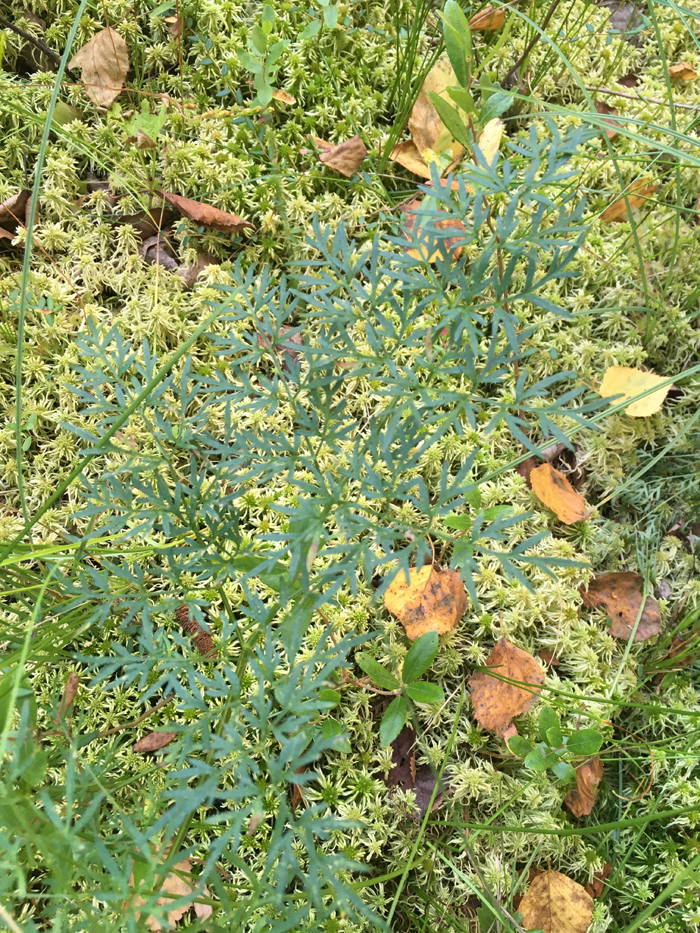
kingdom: Plantae
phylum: Tracheophyta
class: Magnoliopsida
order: Apiales
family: Apiaceae
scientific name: Apiaceae
